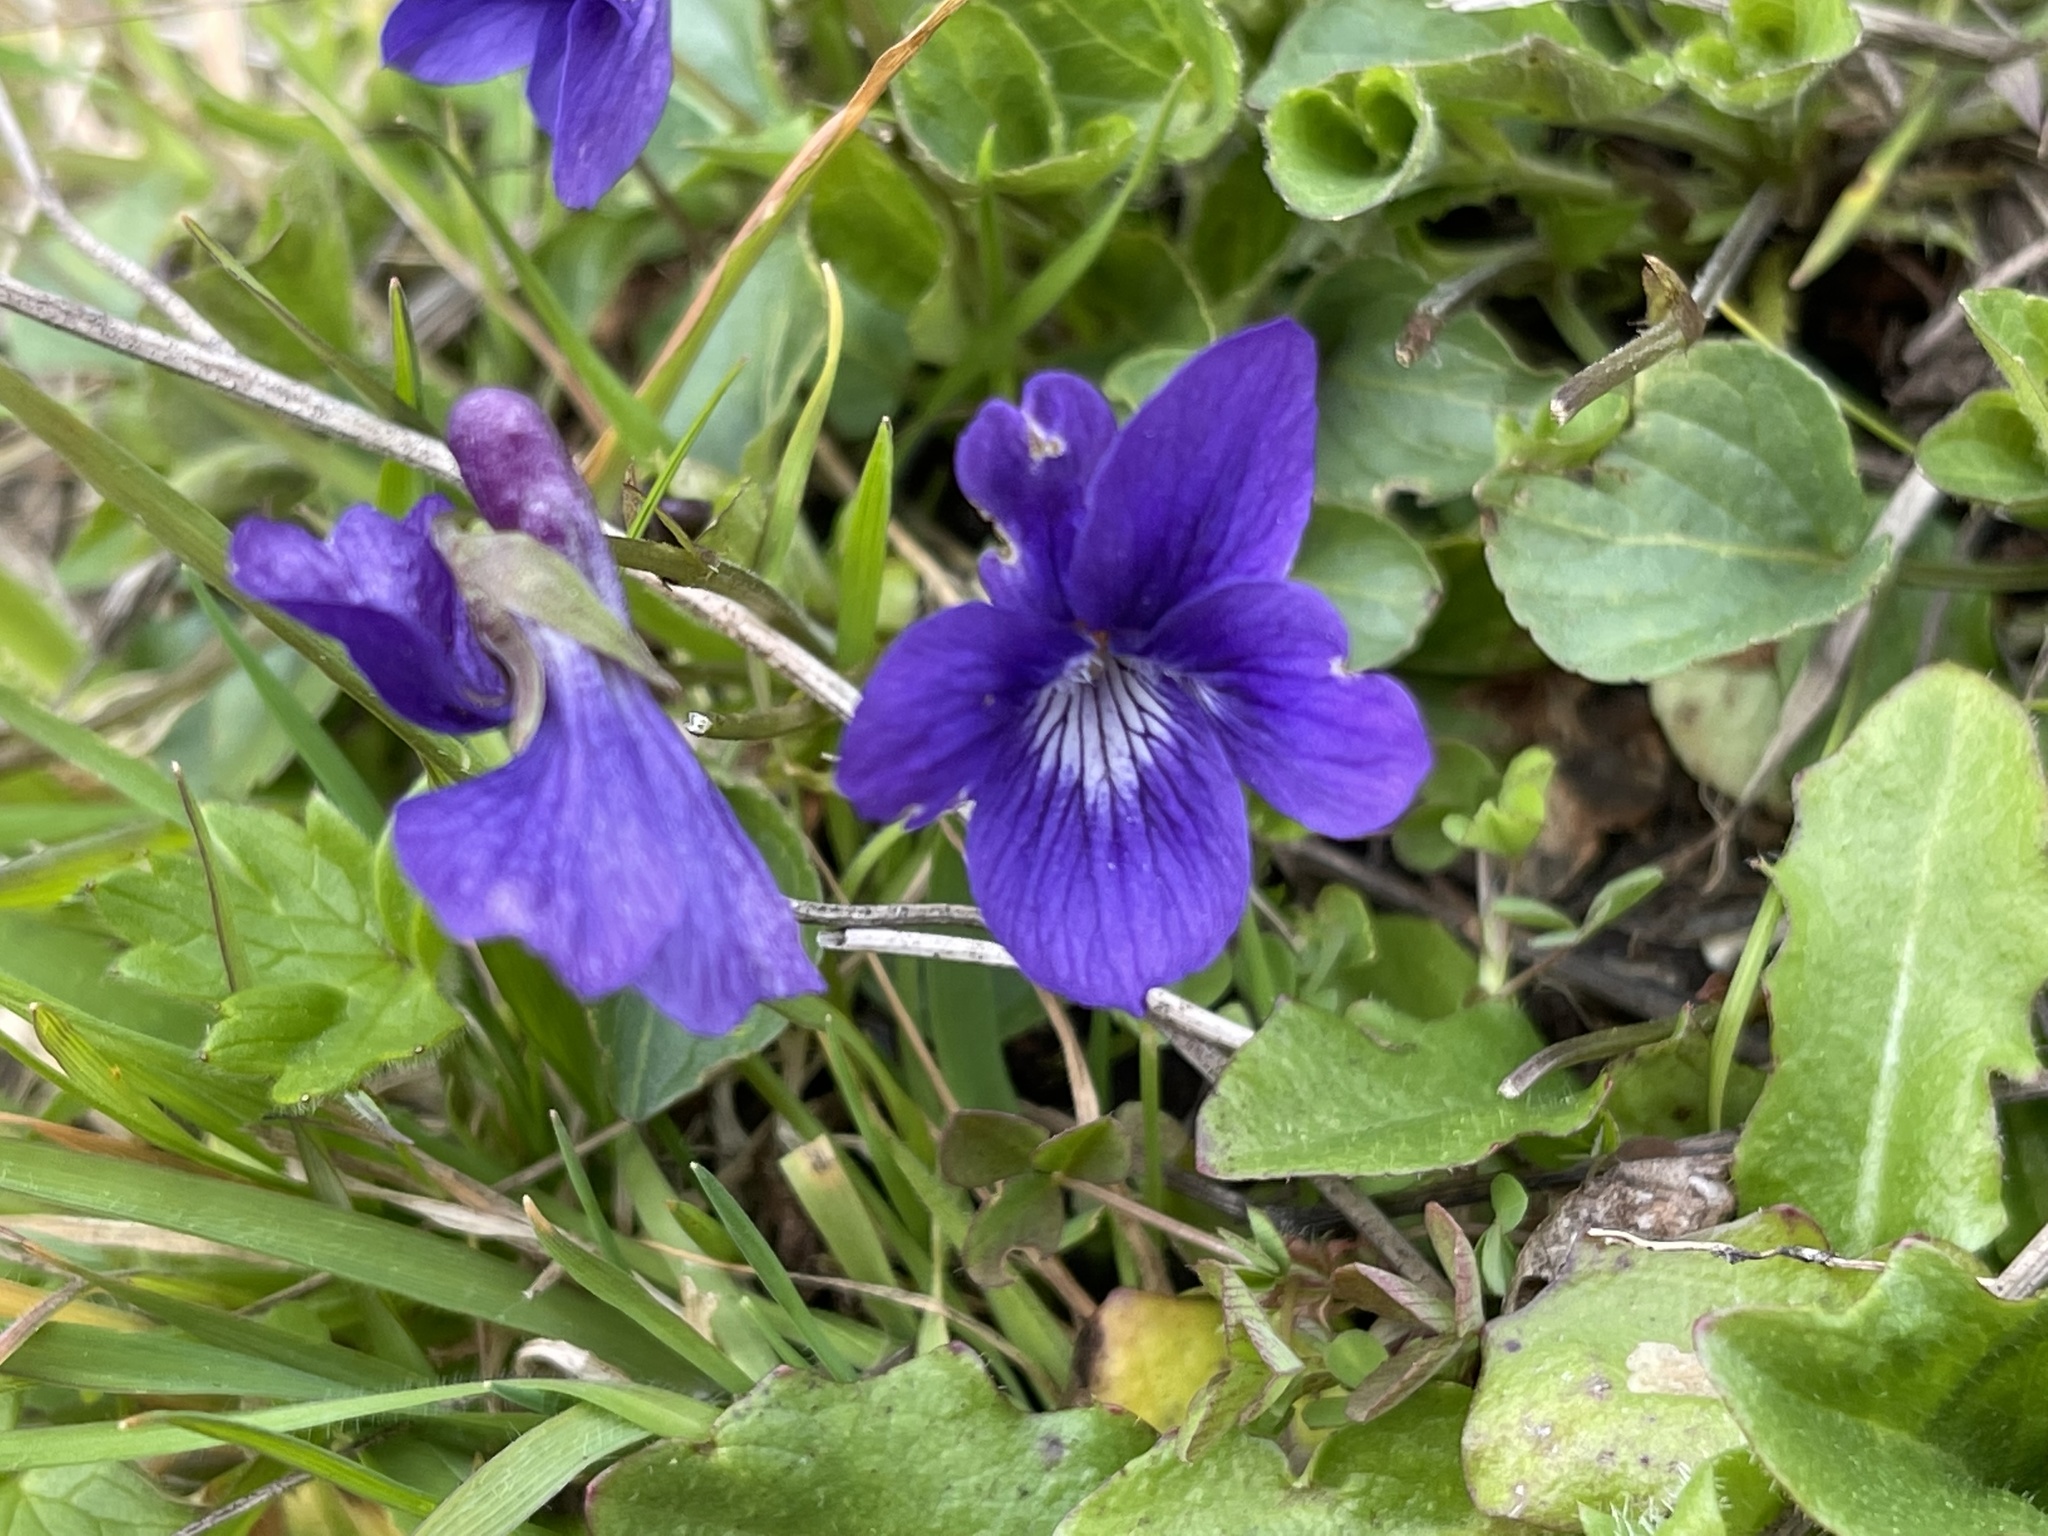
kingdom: Plantae
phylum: Tracheophyta
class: Magnoliopsida
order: Malpighiales
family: Violaceae
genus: Viola
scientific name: Viola adunca
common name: Sand violet
